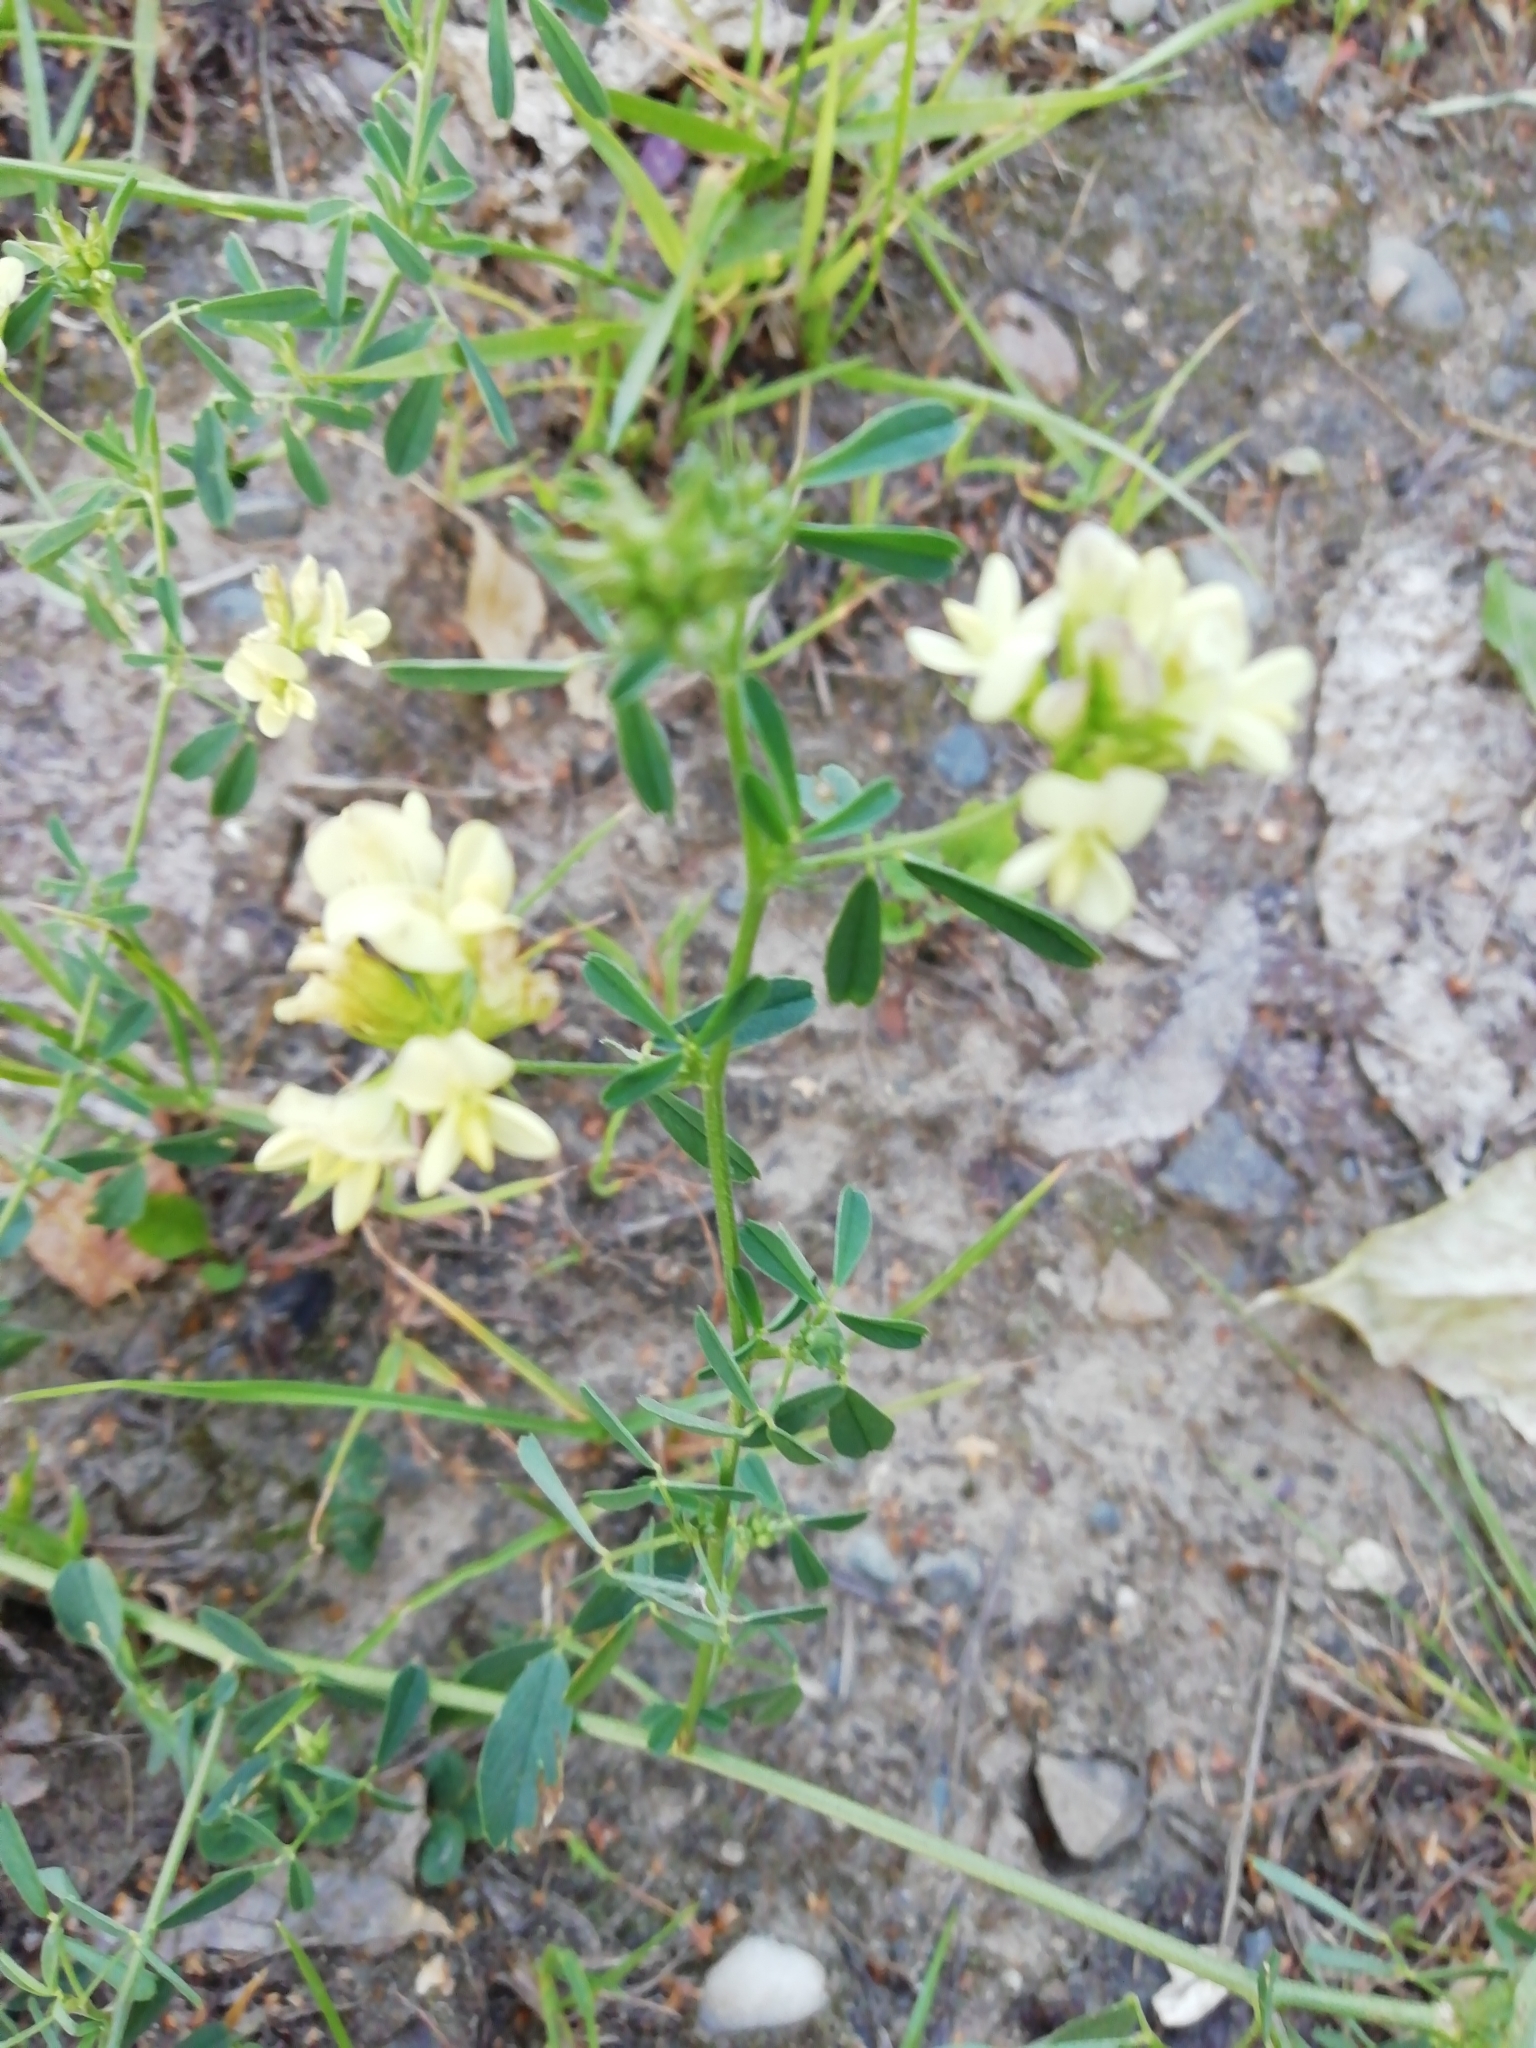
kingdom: Plantae
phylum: Tracheophyta
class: Magnoliopsida
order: Fabales
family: Fabaceae
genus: Medicago
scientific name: Medicago varia
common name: Sand lucerne
